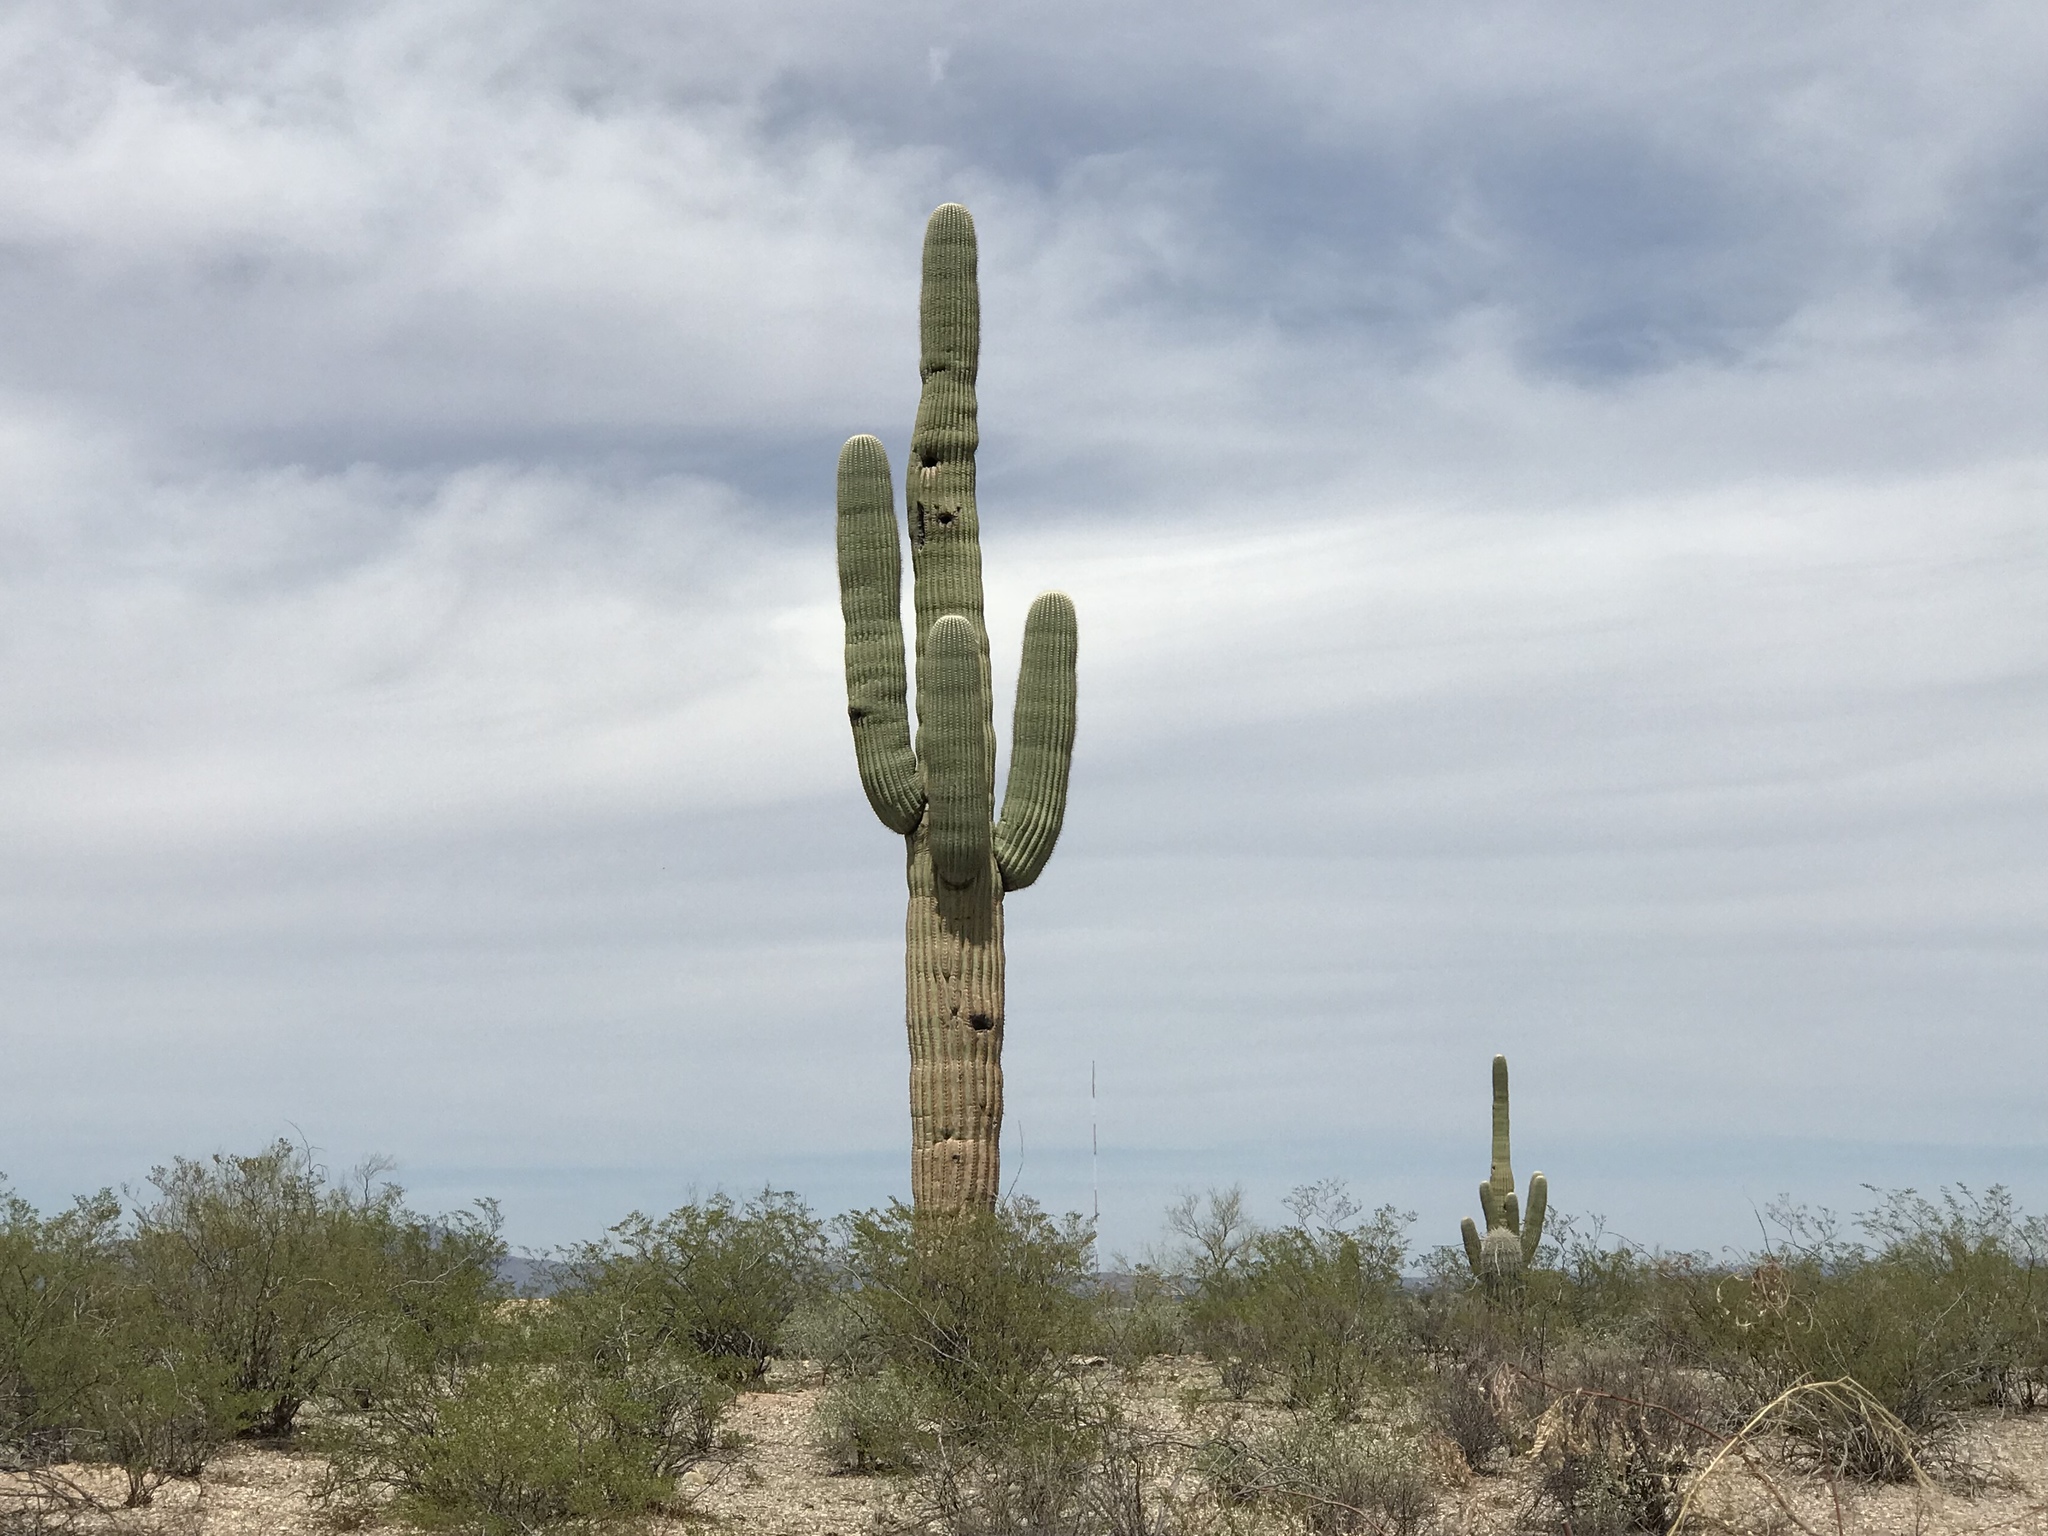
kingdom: Plantae
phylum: Tracheophyta
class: Magnoliopsida
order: Caryophyllales
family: Cactaceae
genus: Carnegiea
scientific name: Carnegiea gigantea
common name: Saguaro
